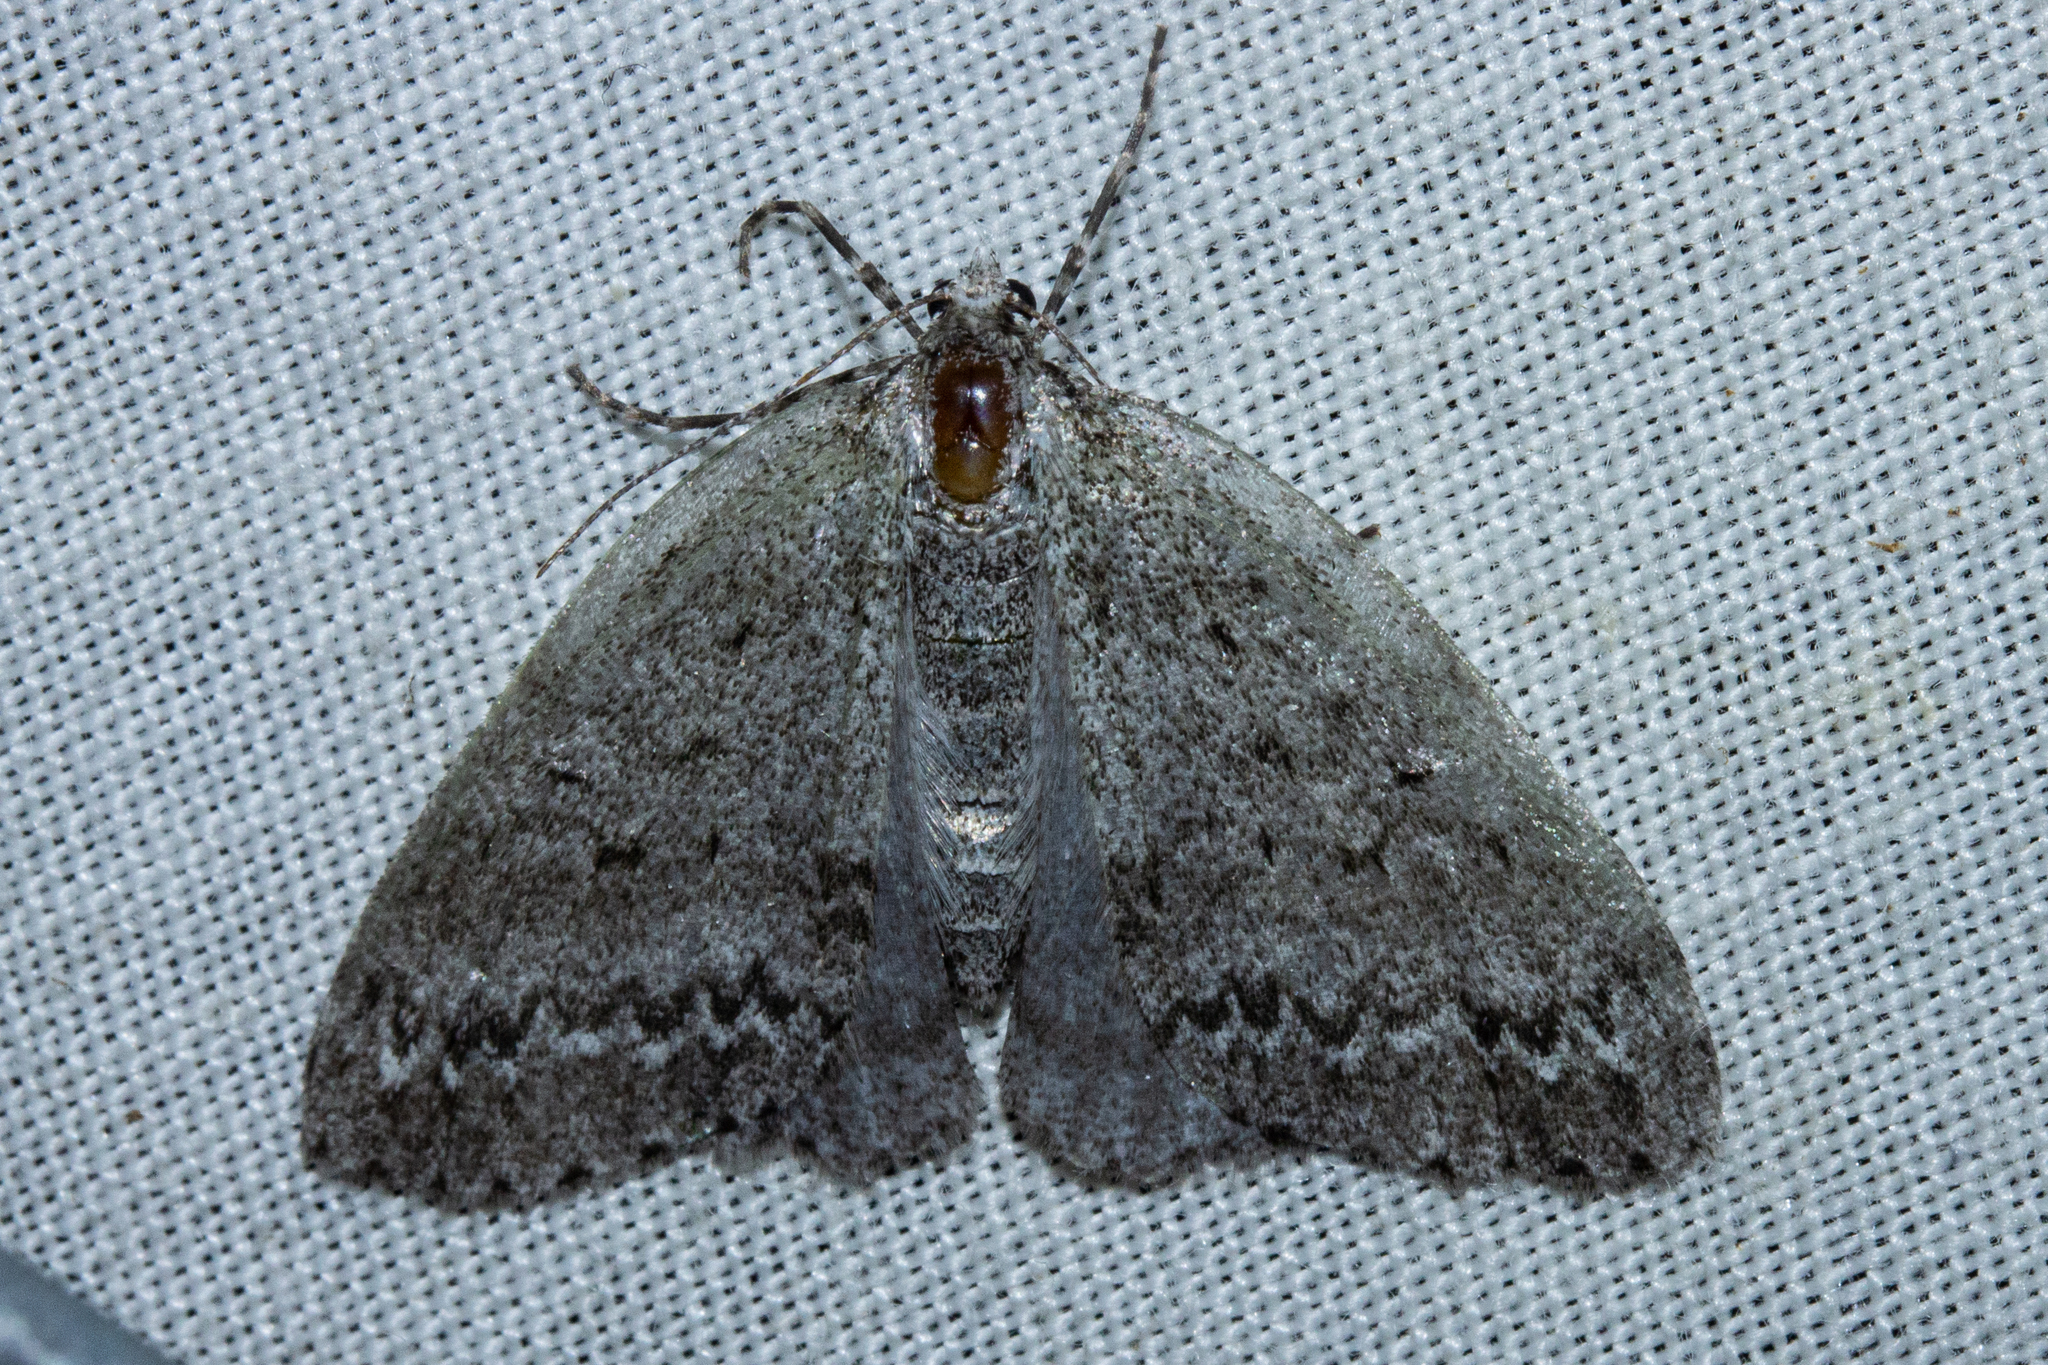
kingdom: Animalia
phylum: Arthropoda
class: Insecta
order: Lepidoptera
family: Geometridae
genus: Pseudocoremia
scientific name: Pseudocoremia fenerata
